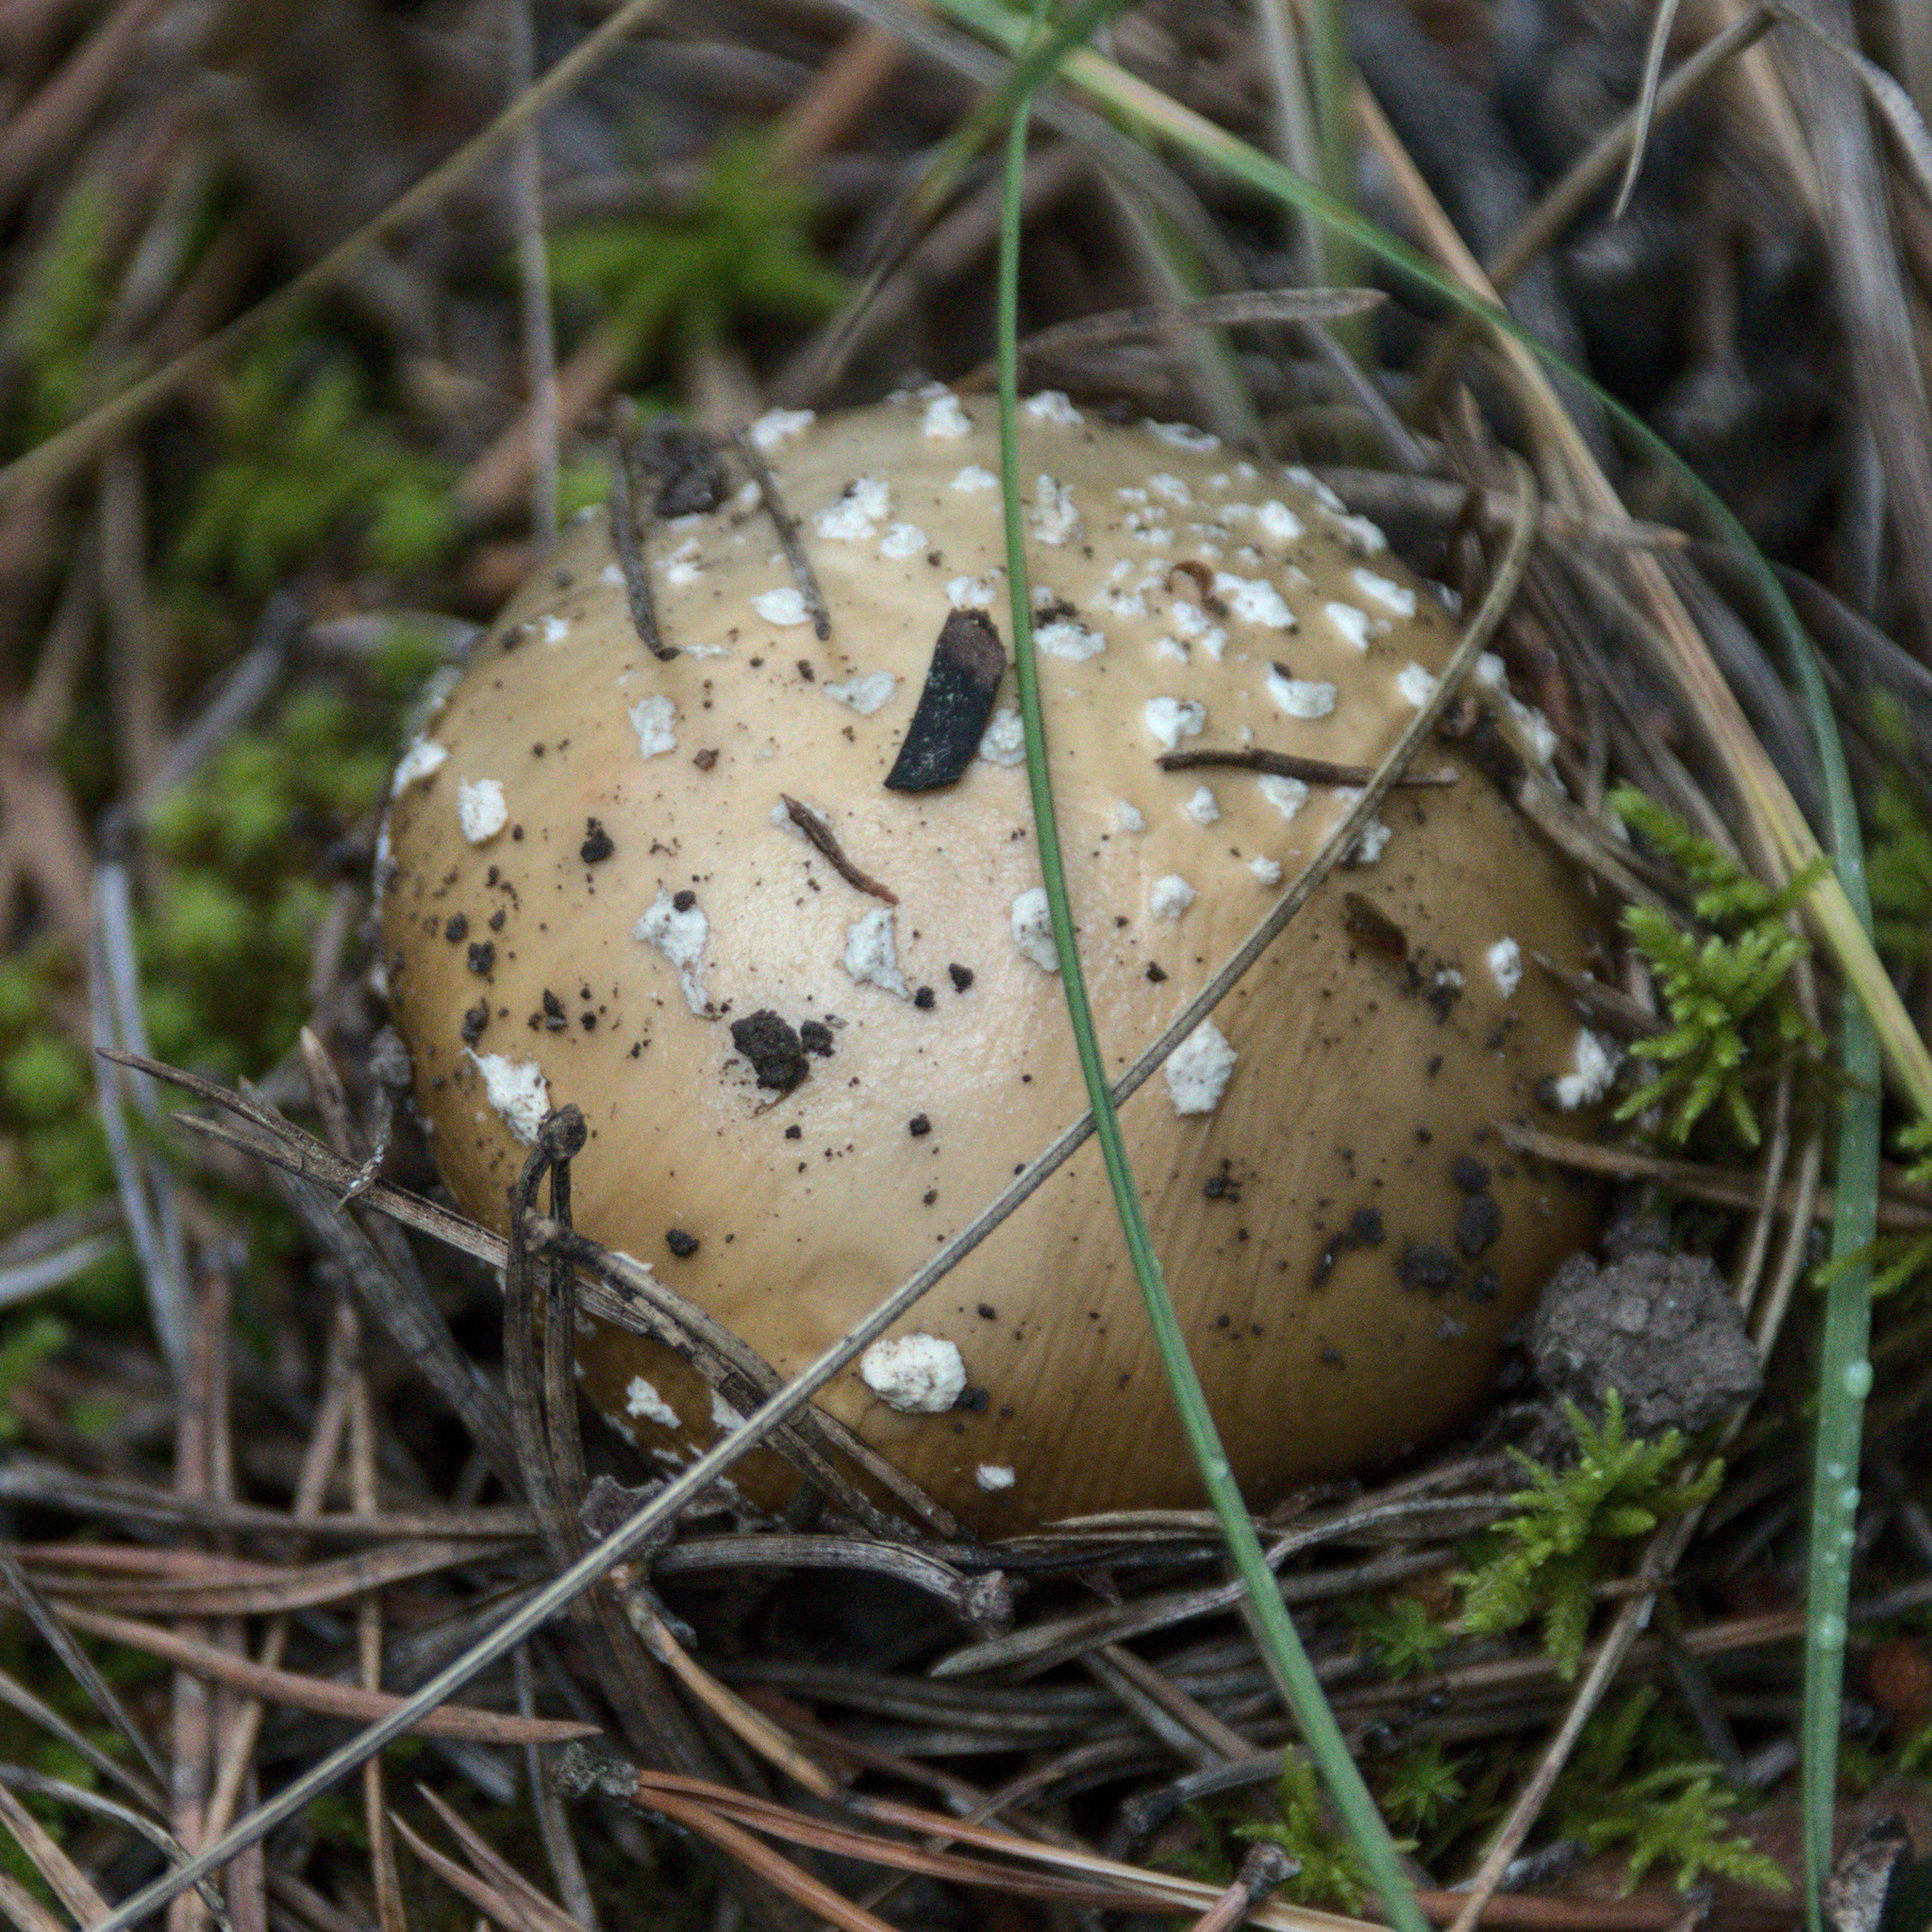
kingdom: Fungi
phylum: Basidiomycota
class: Agaricomycetes
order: Agaricales
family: Amanitaceae
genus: Amanita
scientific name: Amanita pantherina
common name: Panthercap
